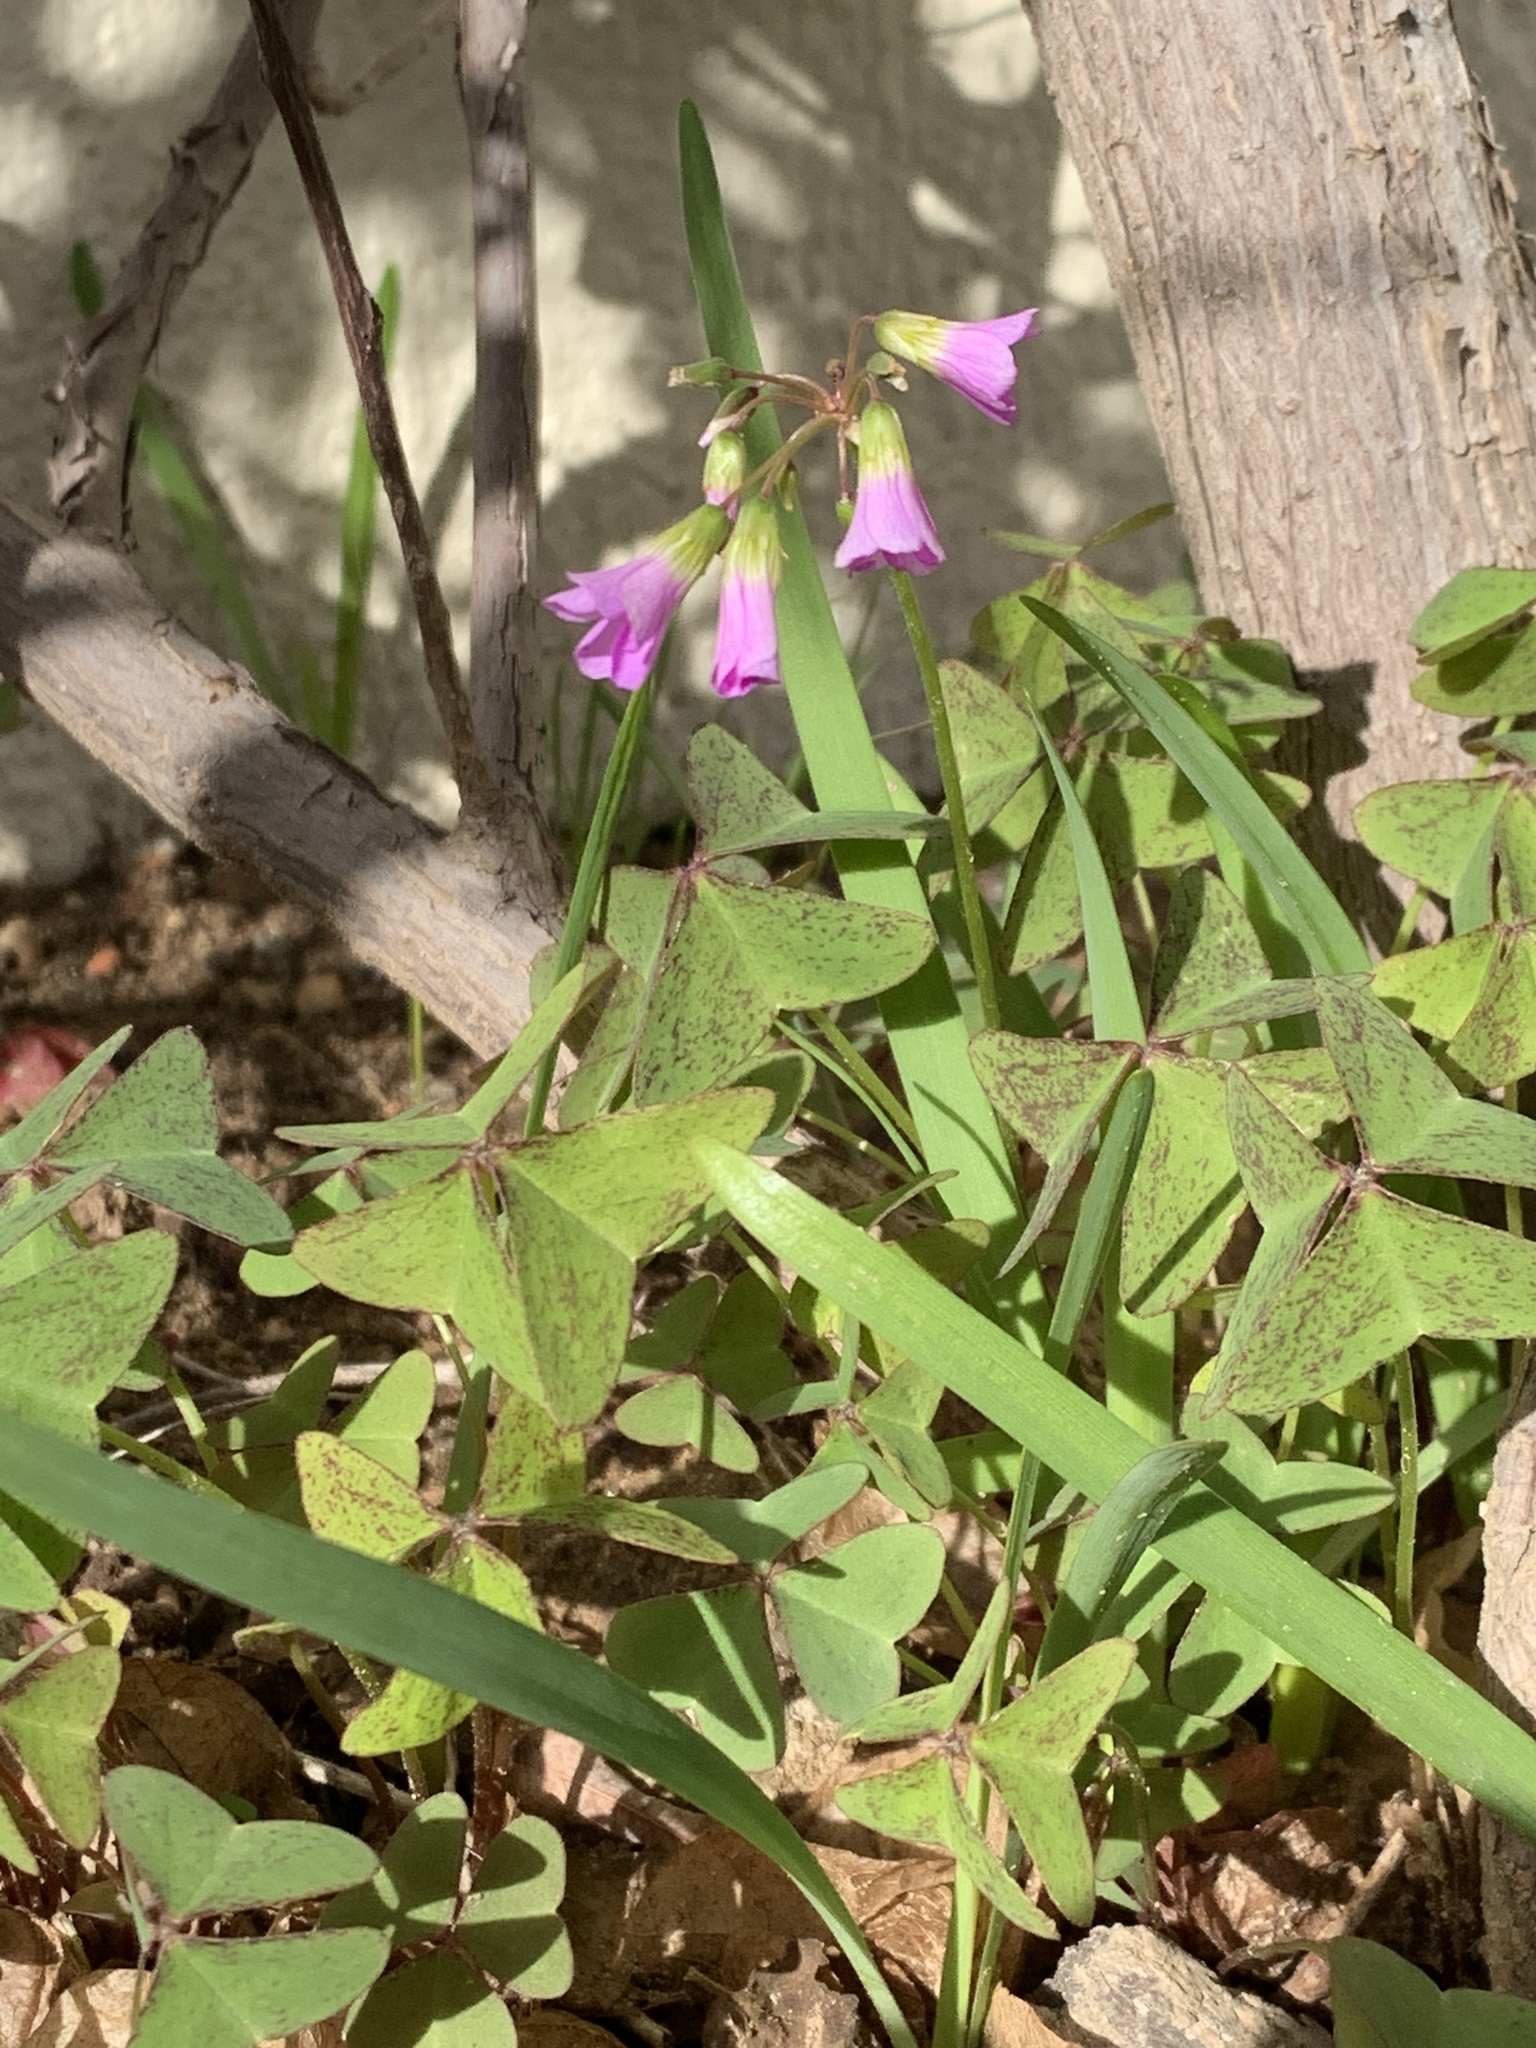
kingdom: Plantae
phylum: Tracheophyta
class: Magnoliopsida
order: Oxalidales
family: Oxalidaceae
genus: Oxalis
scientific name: Oxalis latifolia
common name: Garden pink-sorrel
